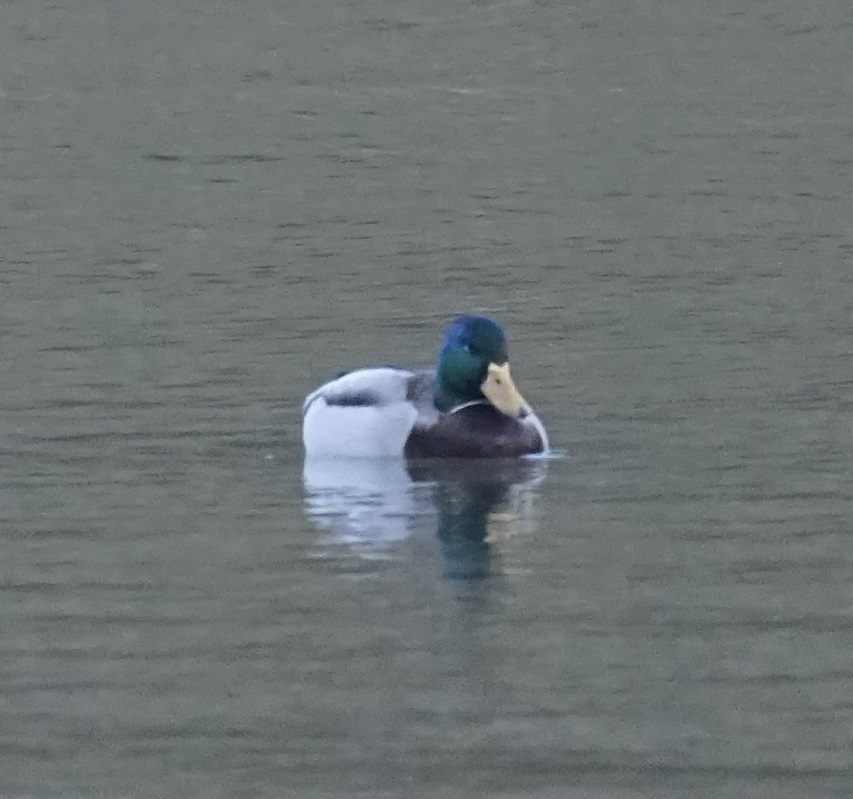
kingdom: Animalia
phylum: Chordata
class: Aves
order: Anseriformes
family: Anatidae
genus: Anas
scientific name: Anas platyrhynchos
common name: Mallard
